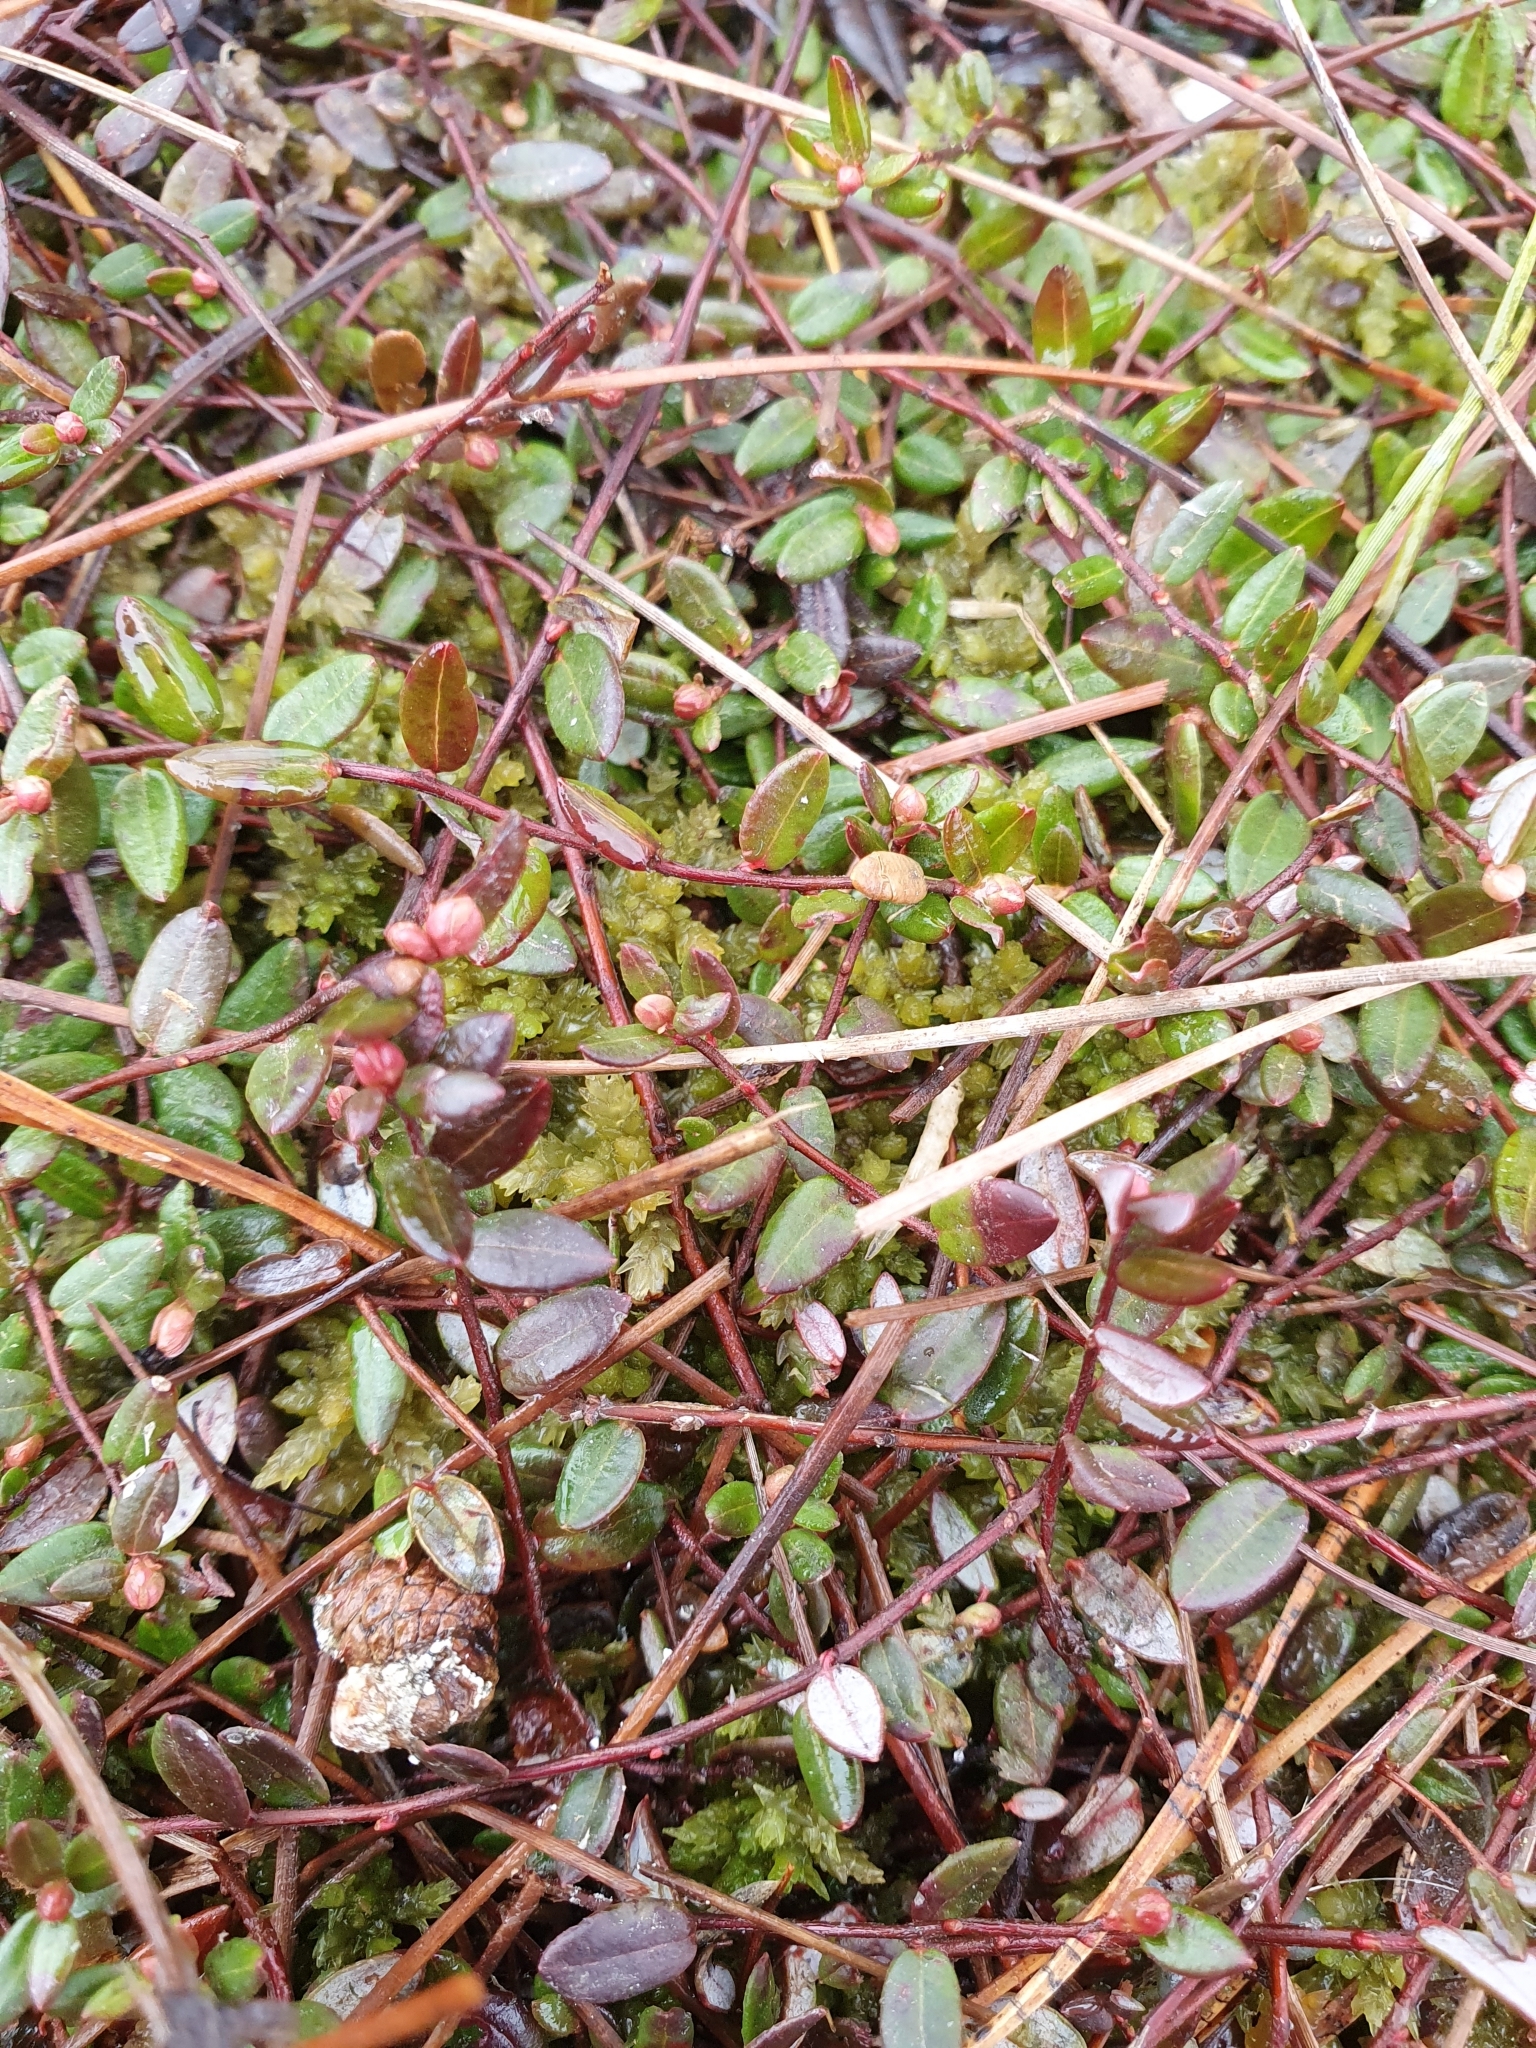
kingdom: Plantae
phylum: Tracheophyta
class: Magnoliopsida
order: Ericales
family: Ericaceae
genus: Vaccinium
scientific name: Vaccinium oxycoccos
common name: Cranberry
